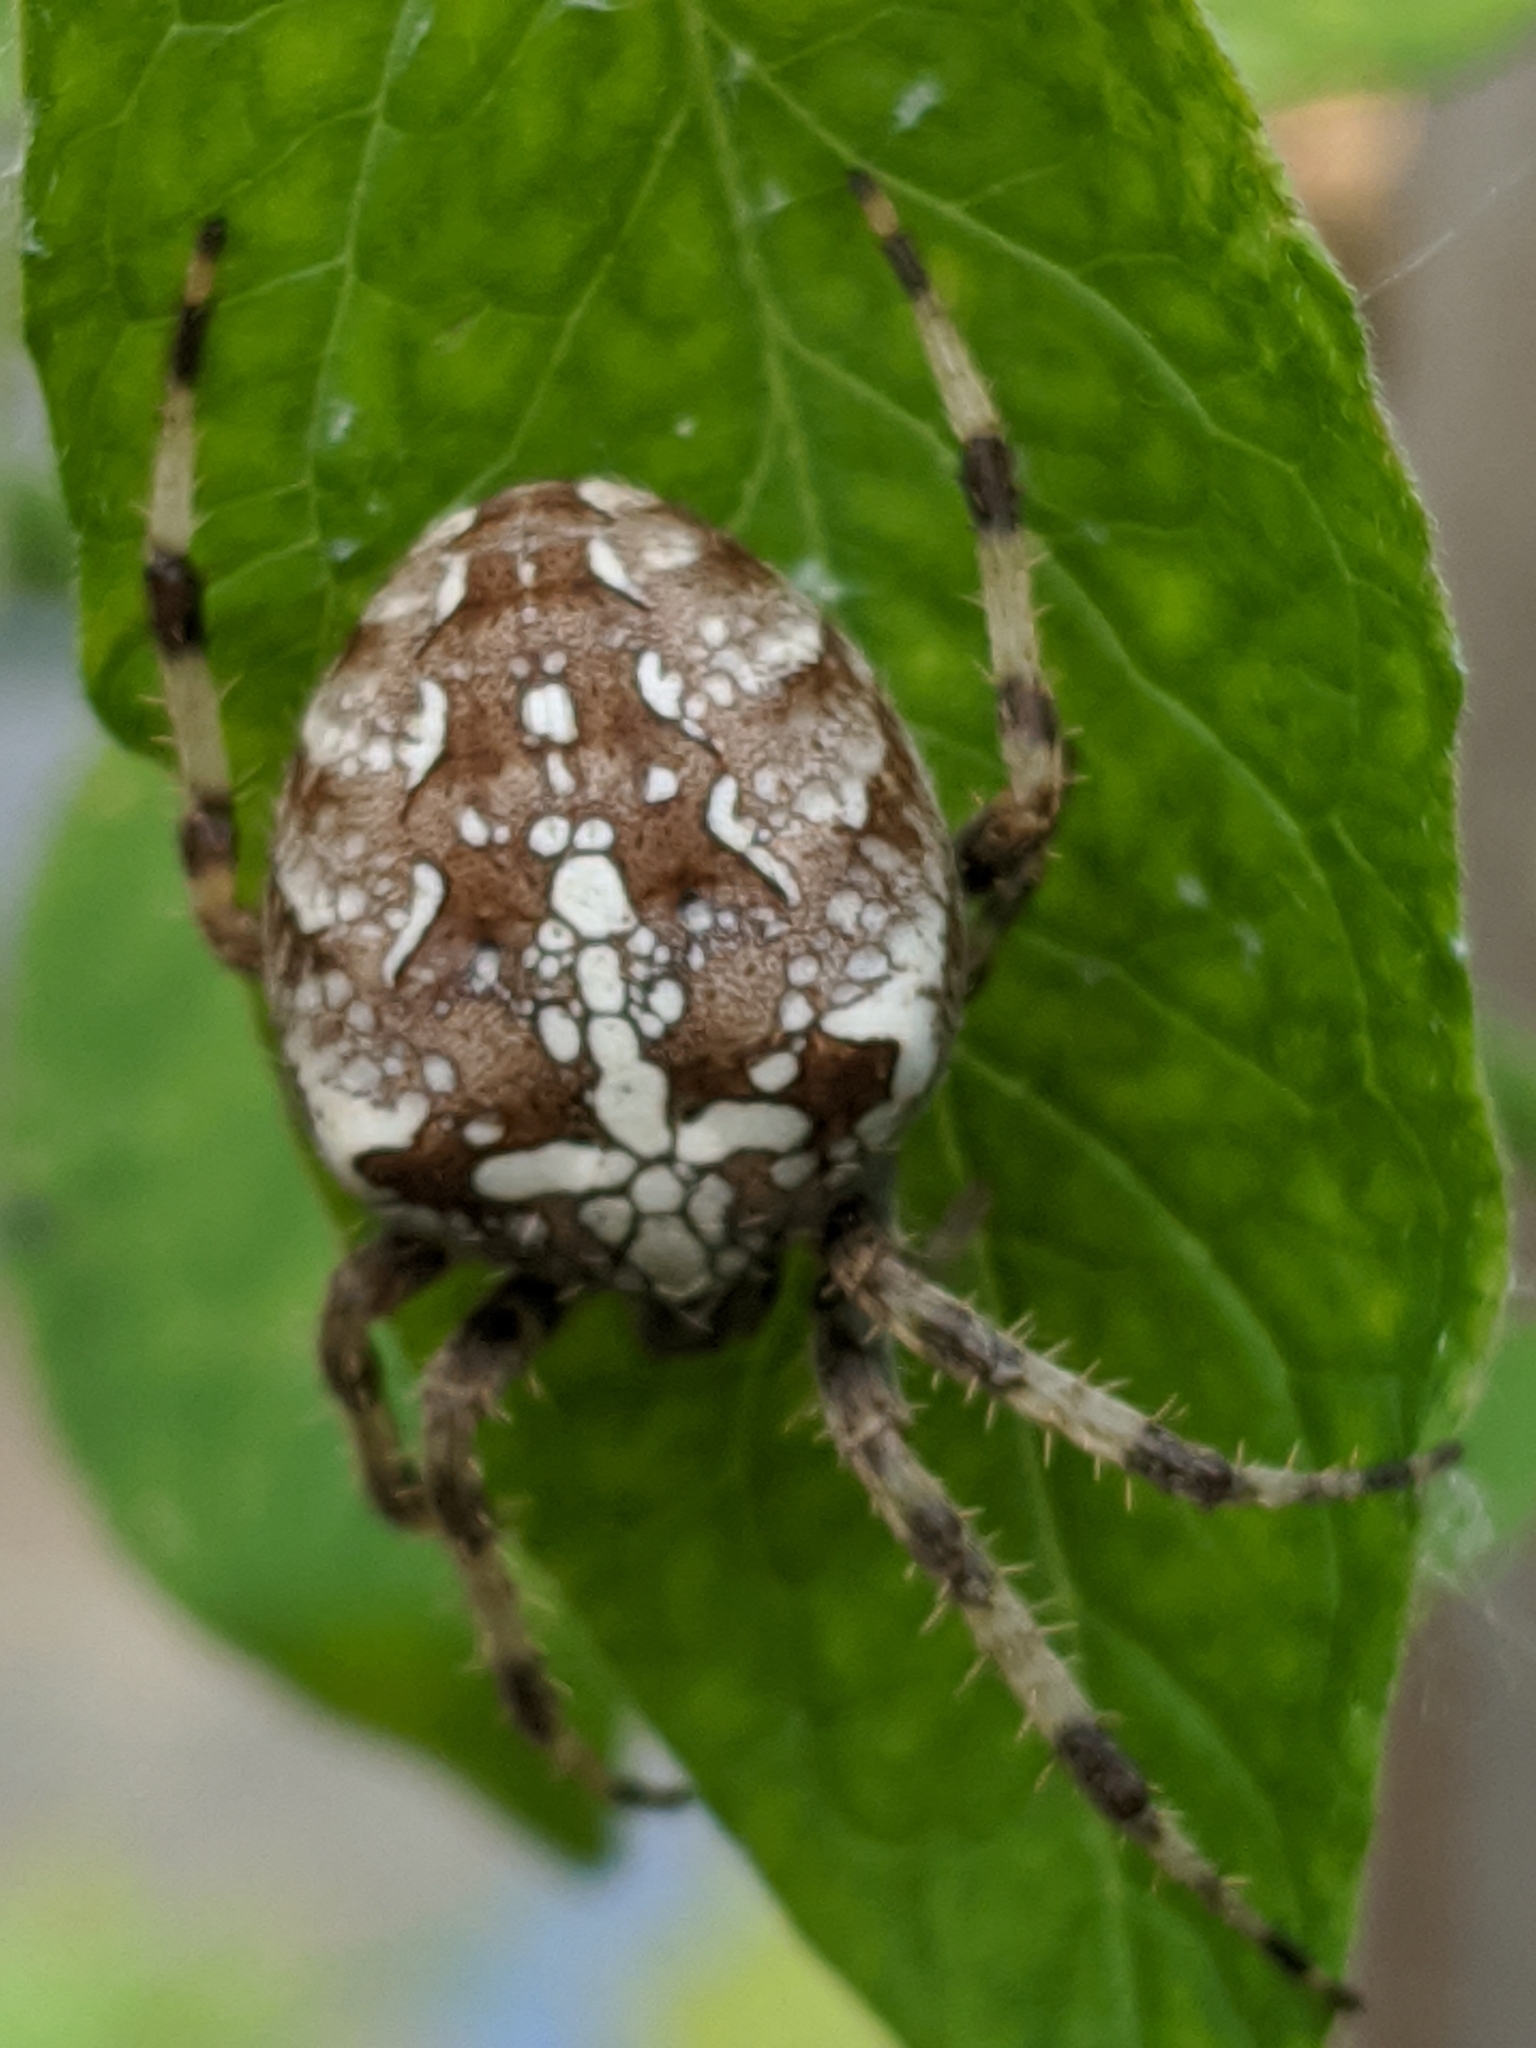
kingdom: Animalia
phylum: Arthropoda
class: Arachnida
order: Araneae
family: Araneidae
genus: Araneus
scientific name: Araneus diadematus
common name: Cross orbweaver
